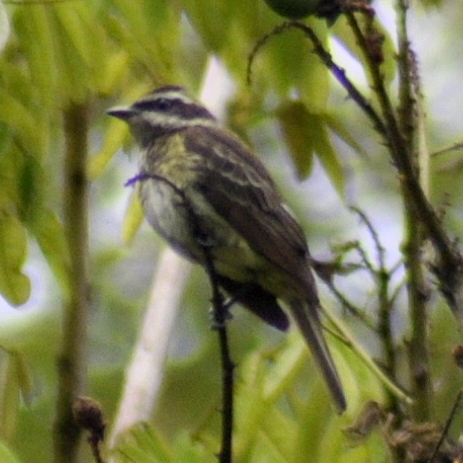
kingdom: Animalia
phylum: Chordata
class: Aves
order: Passeriformes
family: Tyrannidae
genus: Legatus
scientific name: Legatus leucophaius
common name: Piratic flycatcher
